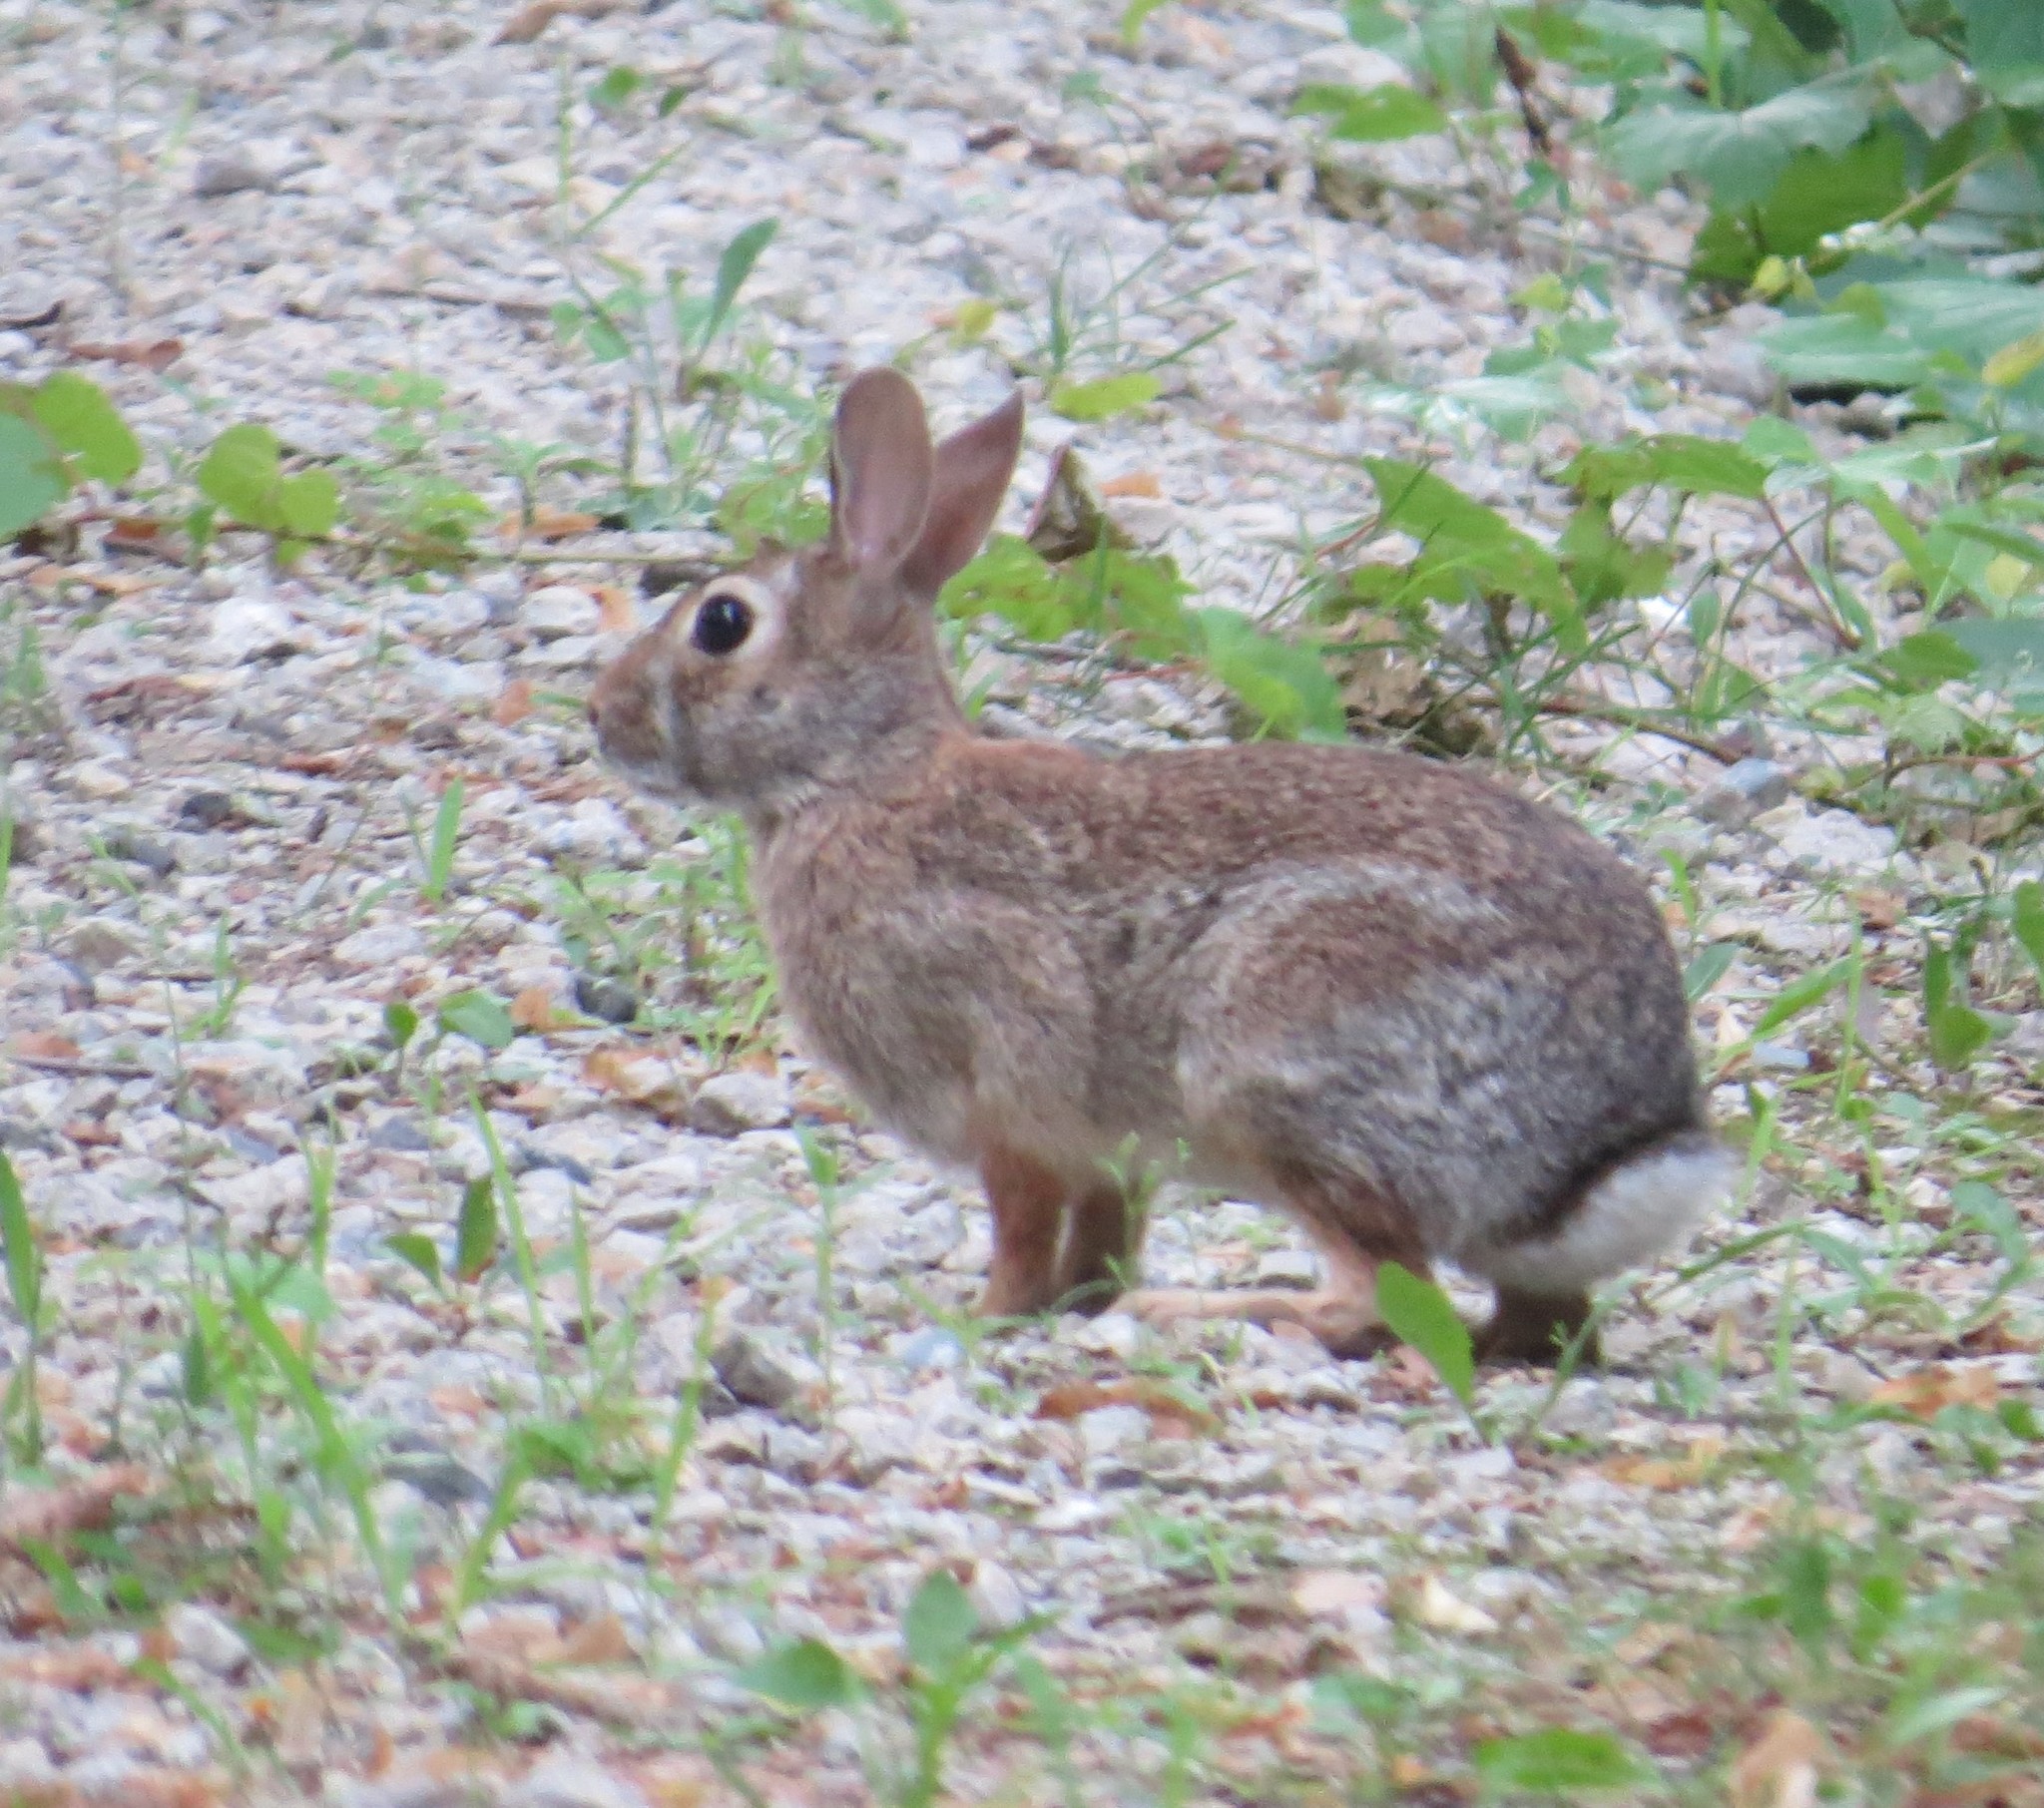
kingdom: Animalia
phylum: Chordata
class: Mammalia
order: Lagomorpha
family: Leporidae
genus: Sylvilagus
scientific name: Sylvilagus floridanus
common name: Eastern cottontail
